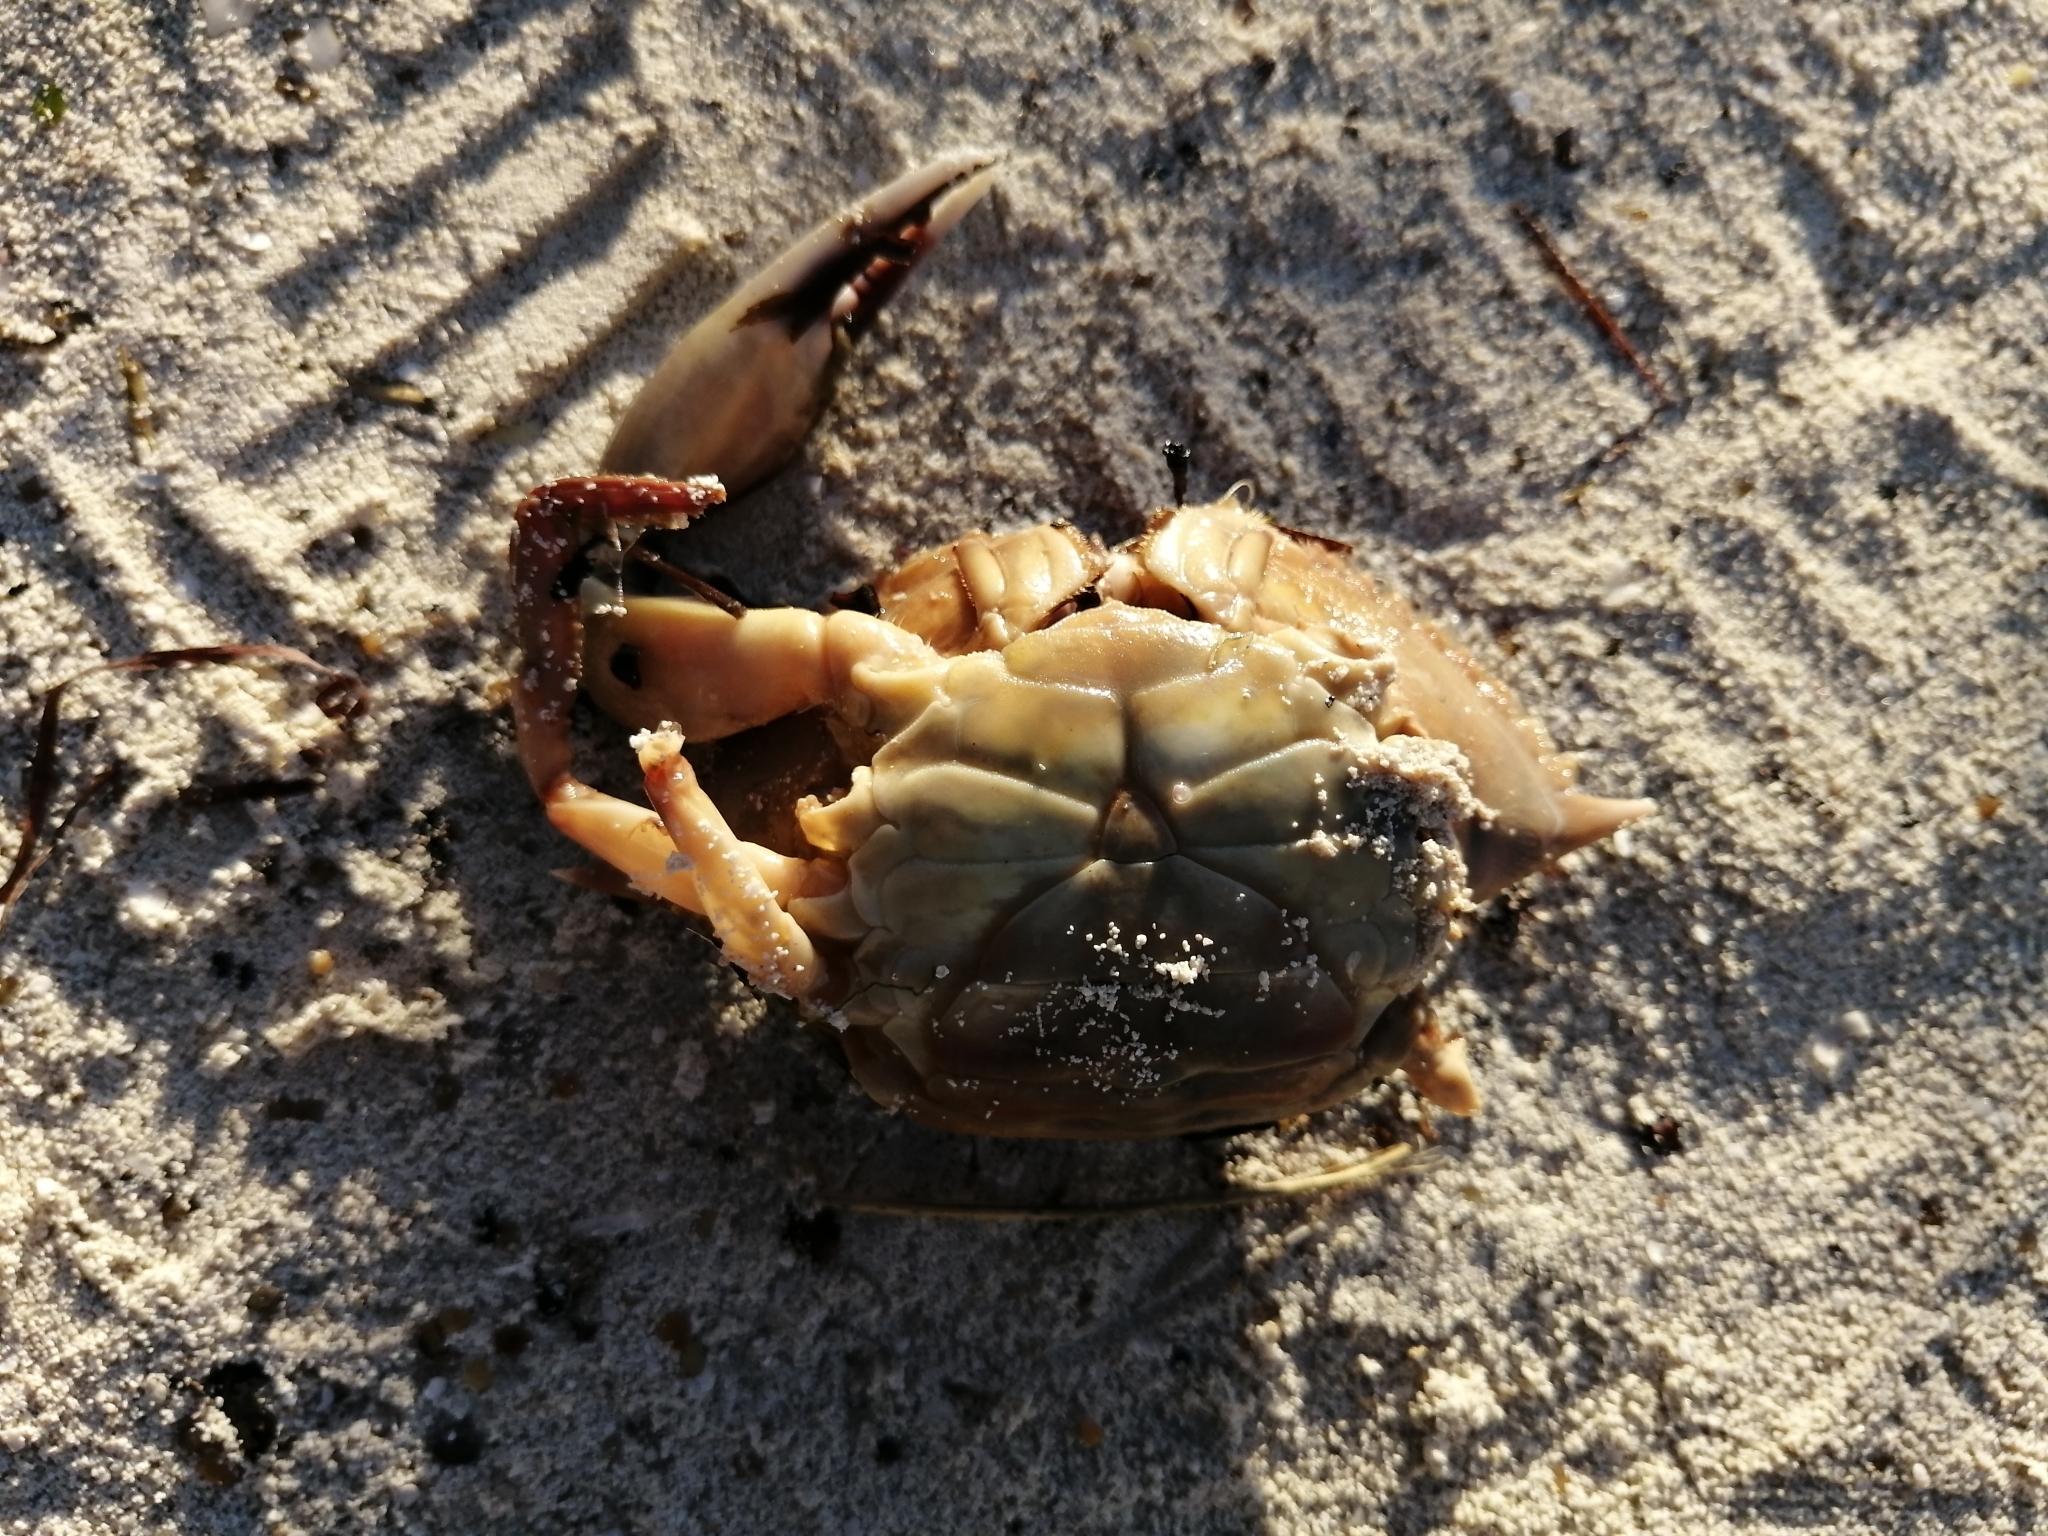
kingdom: Animalia
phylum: Arthropoda
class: Malacostraca
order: Decapoda
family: Portunidae
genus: Callinectes
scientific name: Callinectes rathbunae
